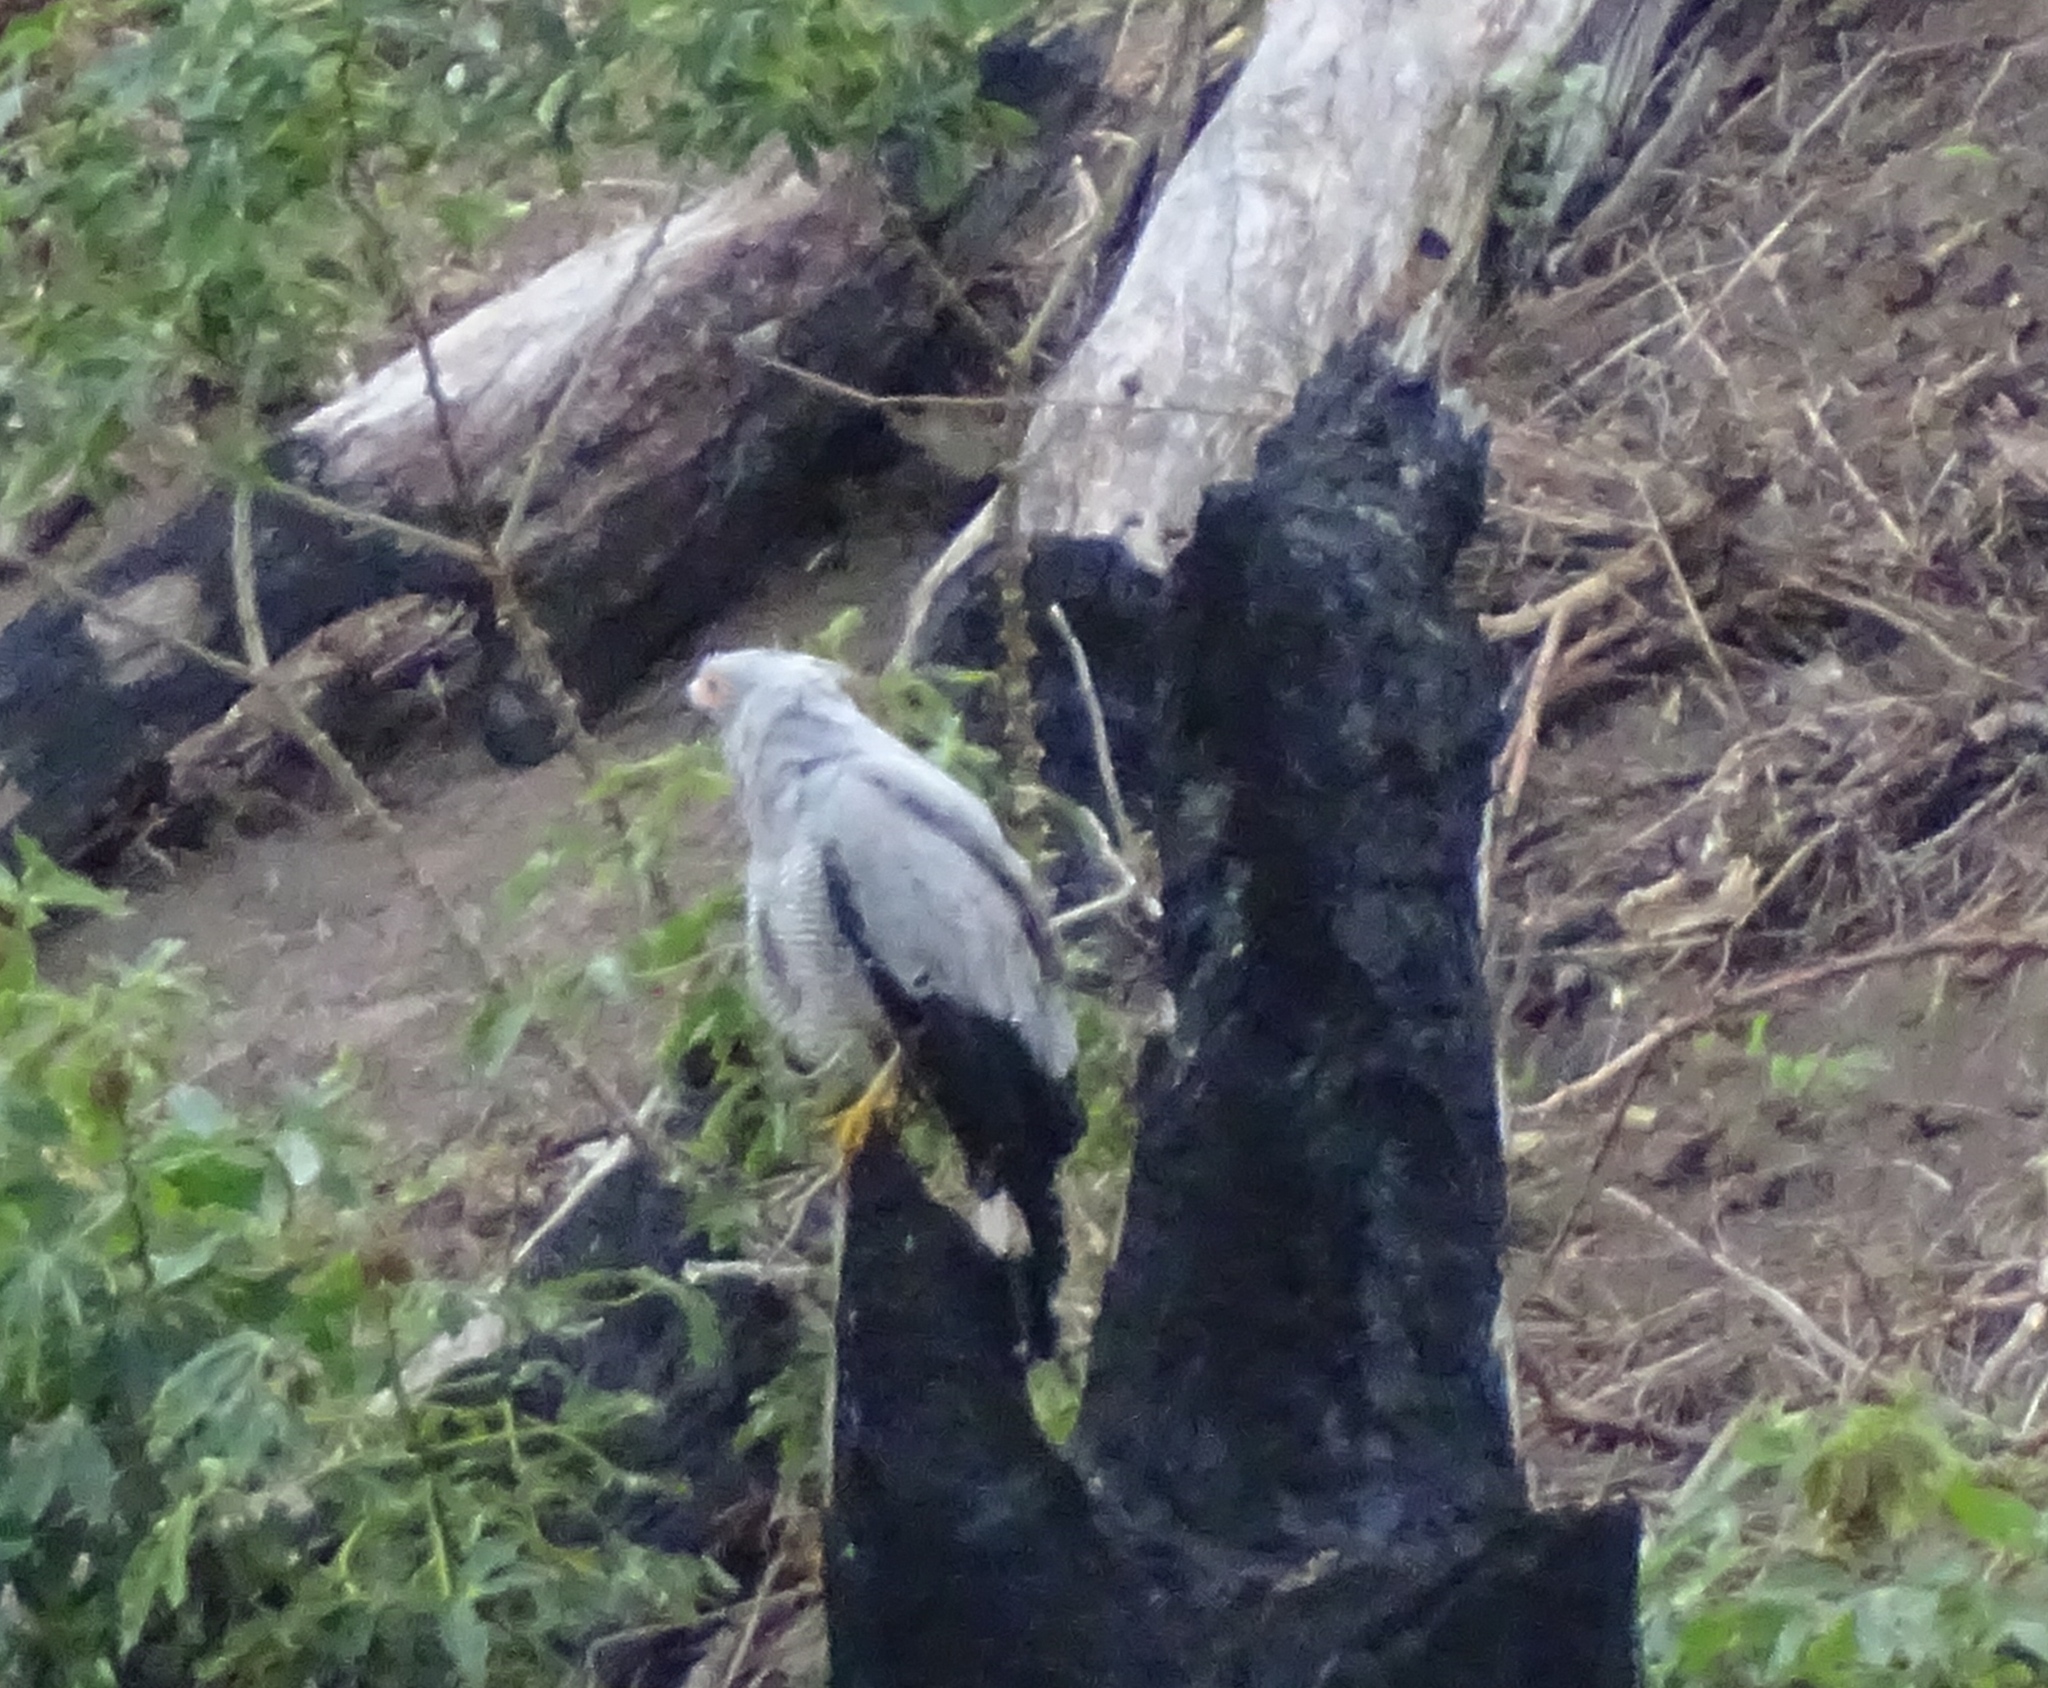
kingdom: Animalia
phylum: Chordata
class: Aves
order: Accipitriformes
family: Accipitridae
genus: Polyboroides
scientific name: Polyboroides radiatus
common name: Madagascar harrier-hawk
